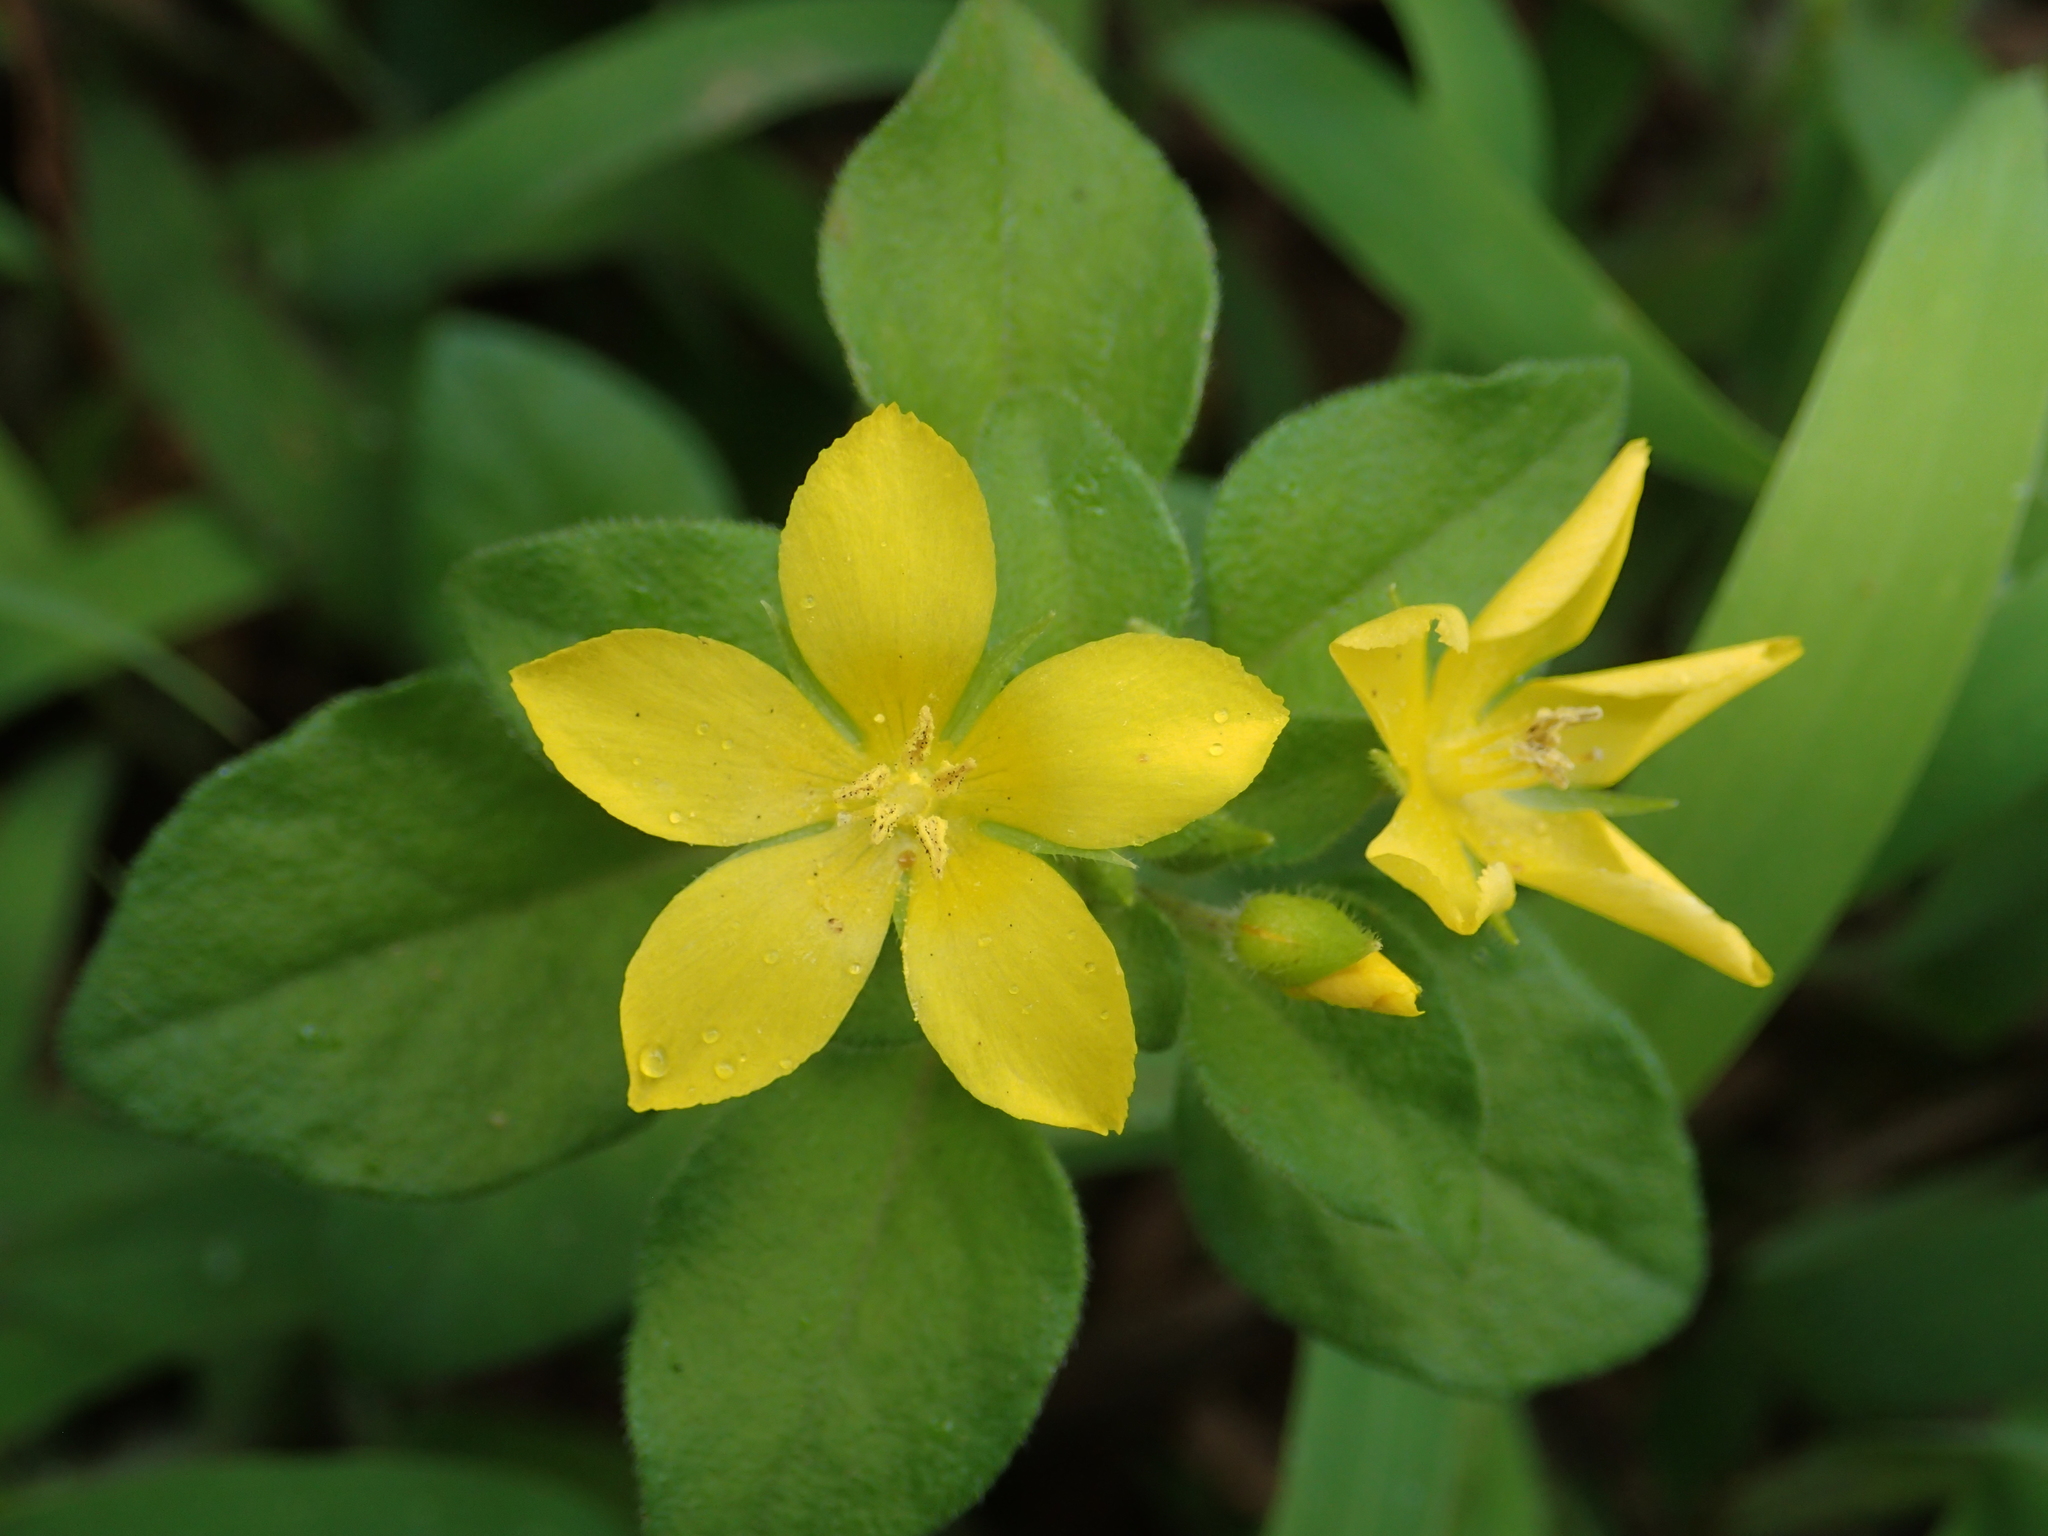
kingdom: Plantae
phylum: Tracheophyta
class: Magnoliopsida
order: Ericales
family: Primulaceae
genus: Lysimachia
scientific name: Lysimachia remota
